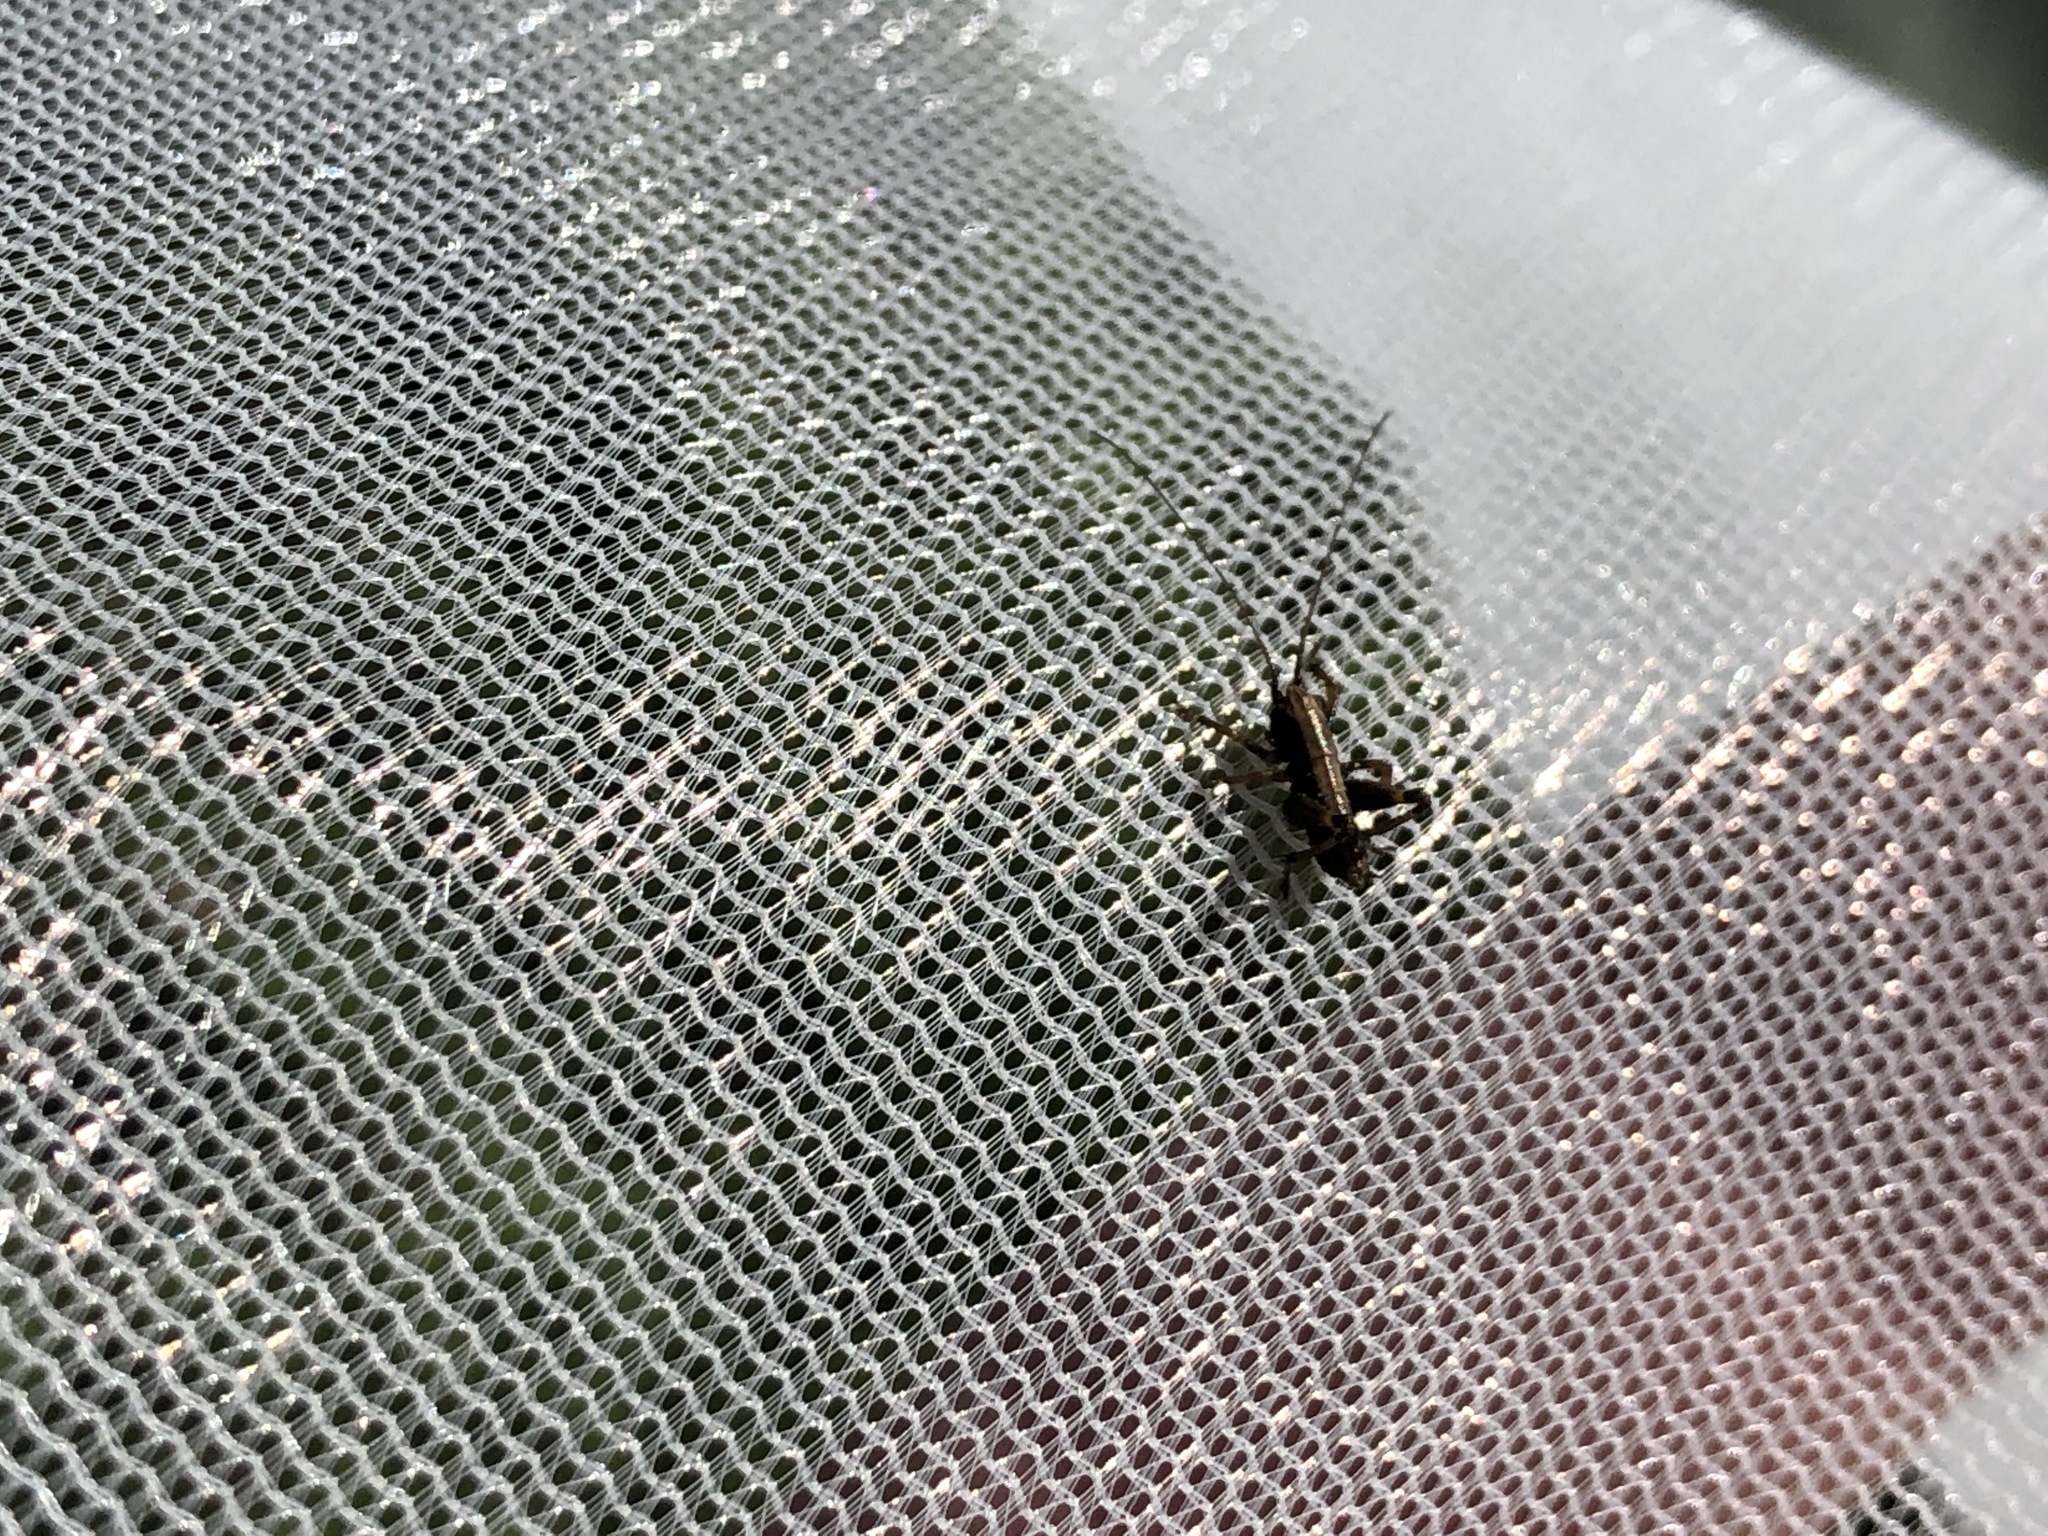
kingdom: Animalia
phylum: Arthropoda
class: Insecta
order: Orthoptera
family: Tettigoniidae
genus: Pholidoptera
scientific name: Pholidoptera griseoaptera
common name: Dark bush-cricket
